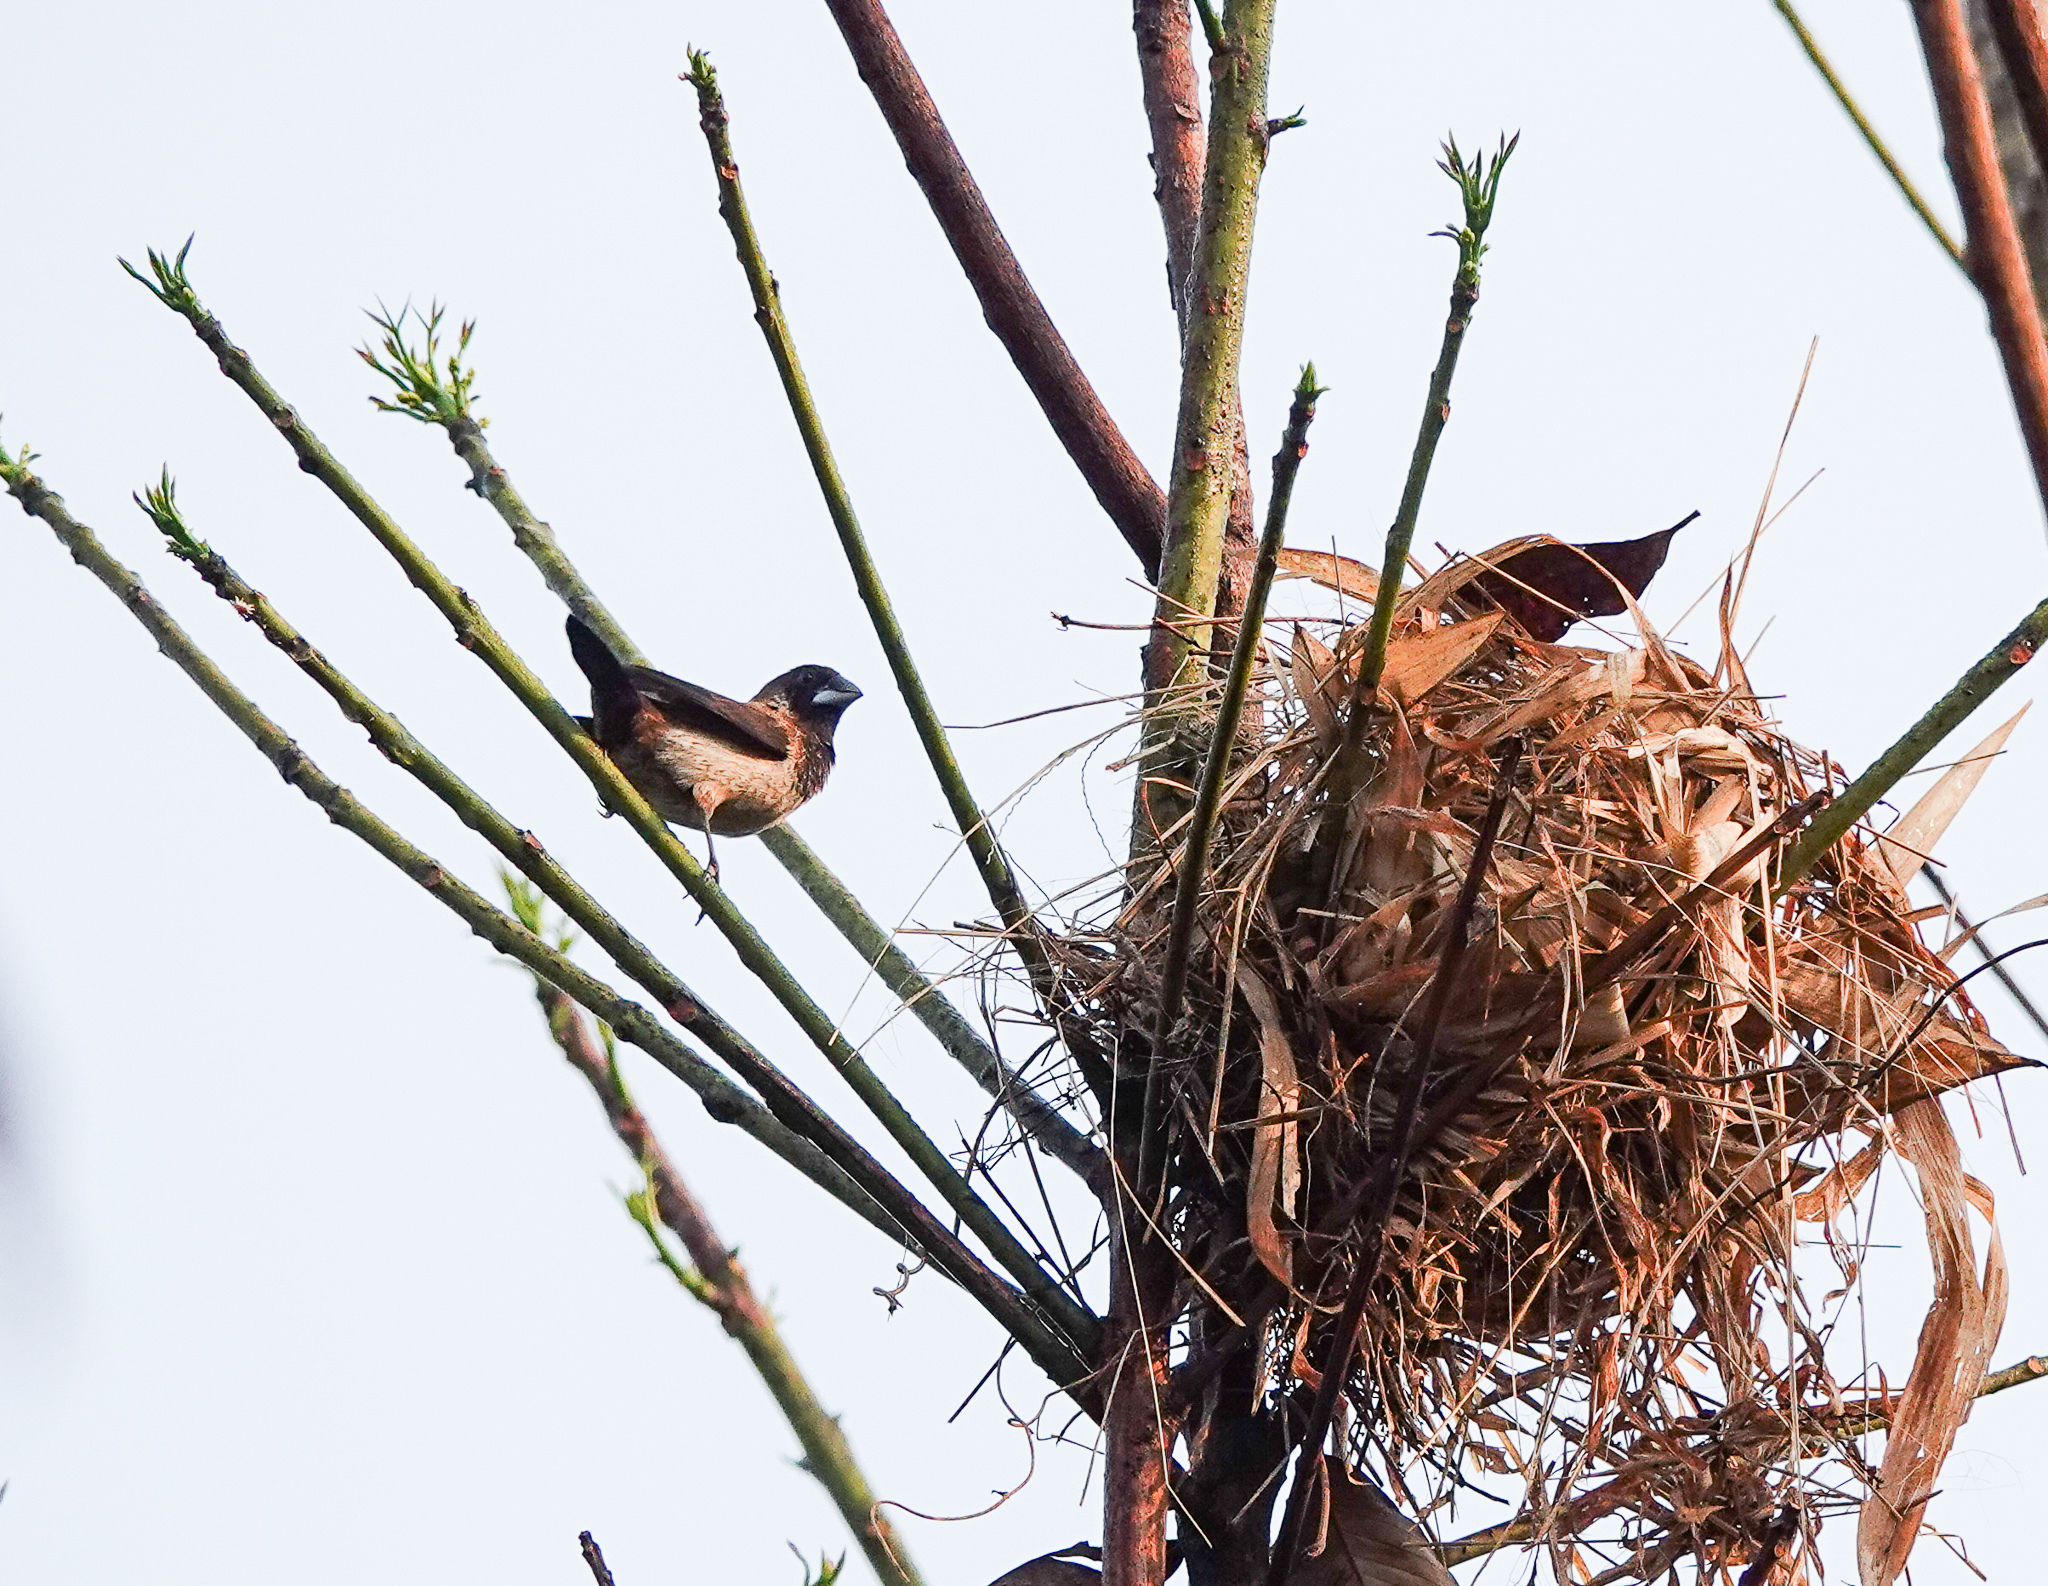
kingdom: Animalia
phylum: Chordata
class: Aves
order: Passeriformes
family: Estrildidae
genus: Lonchura
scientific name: Lonchura striata
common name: White-rumped munia
